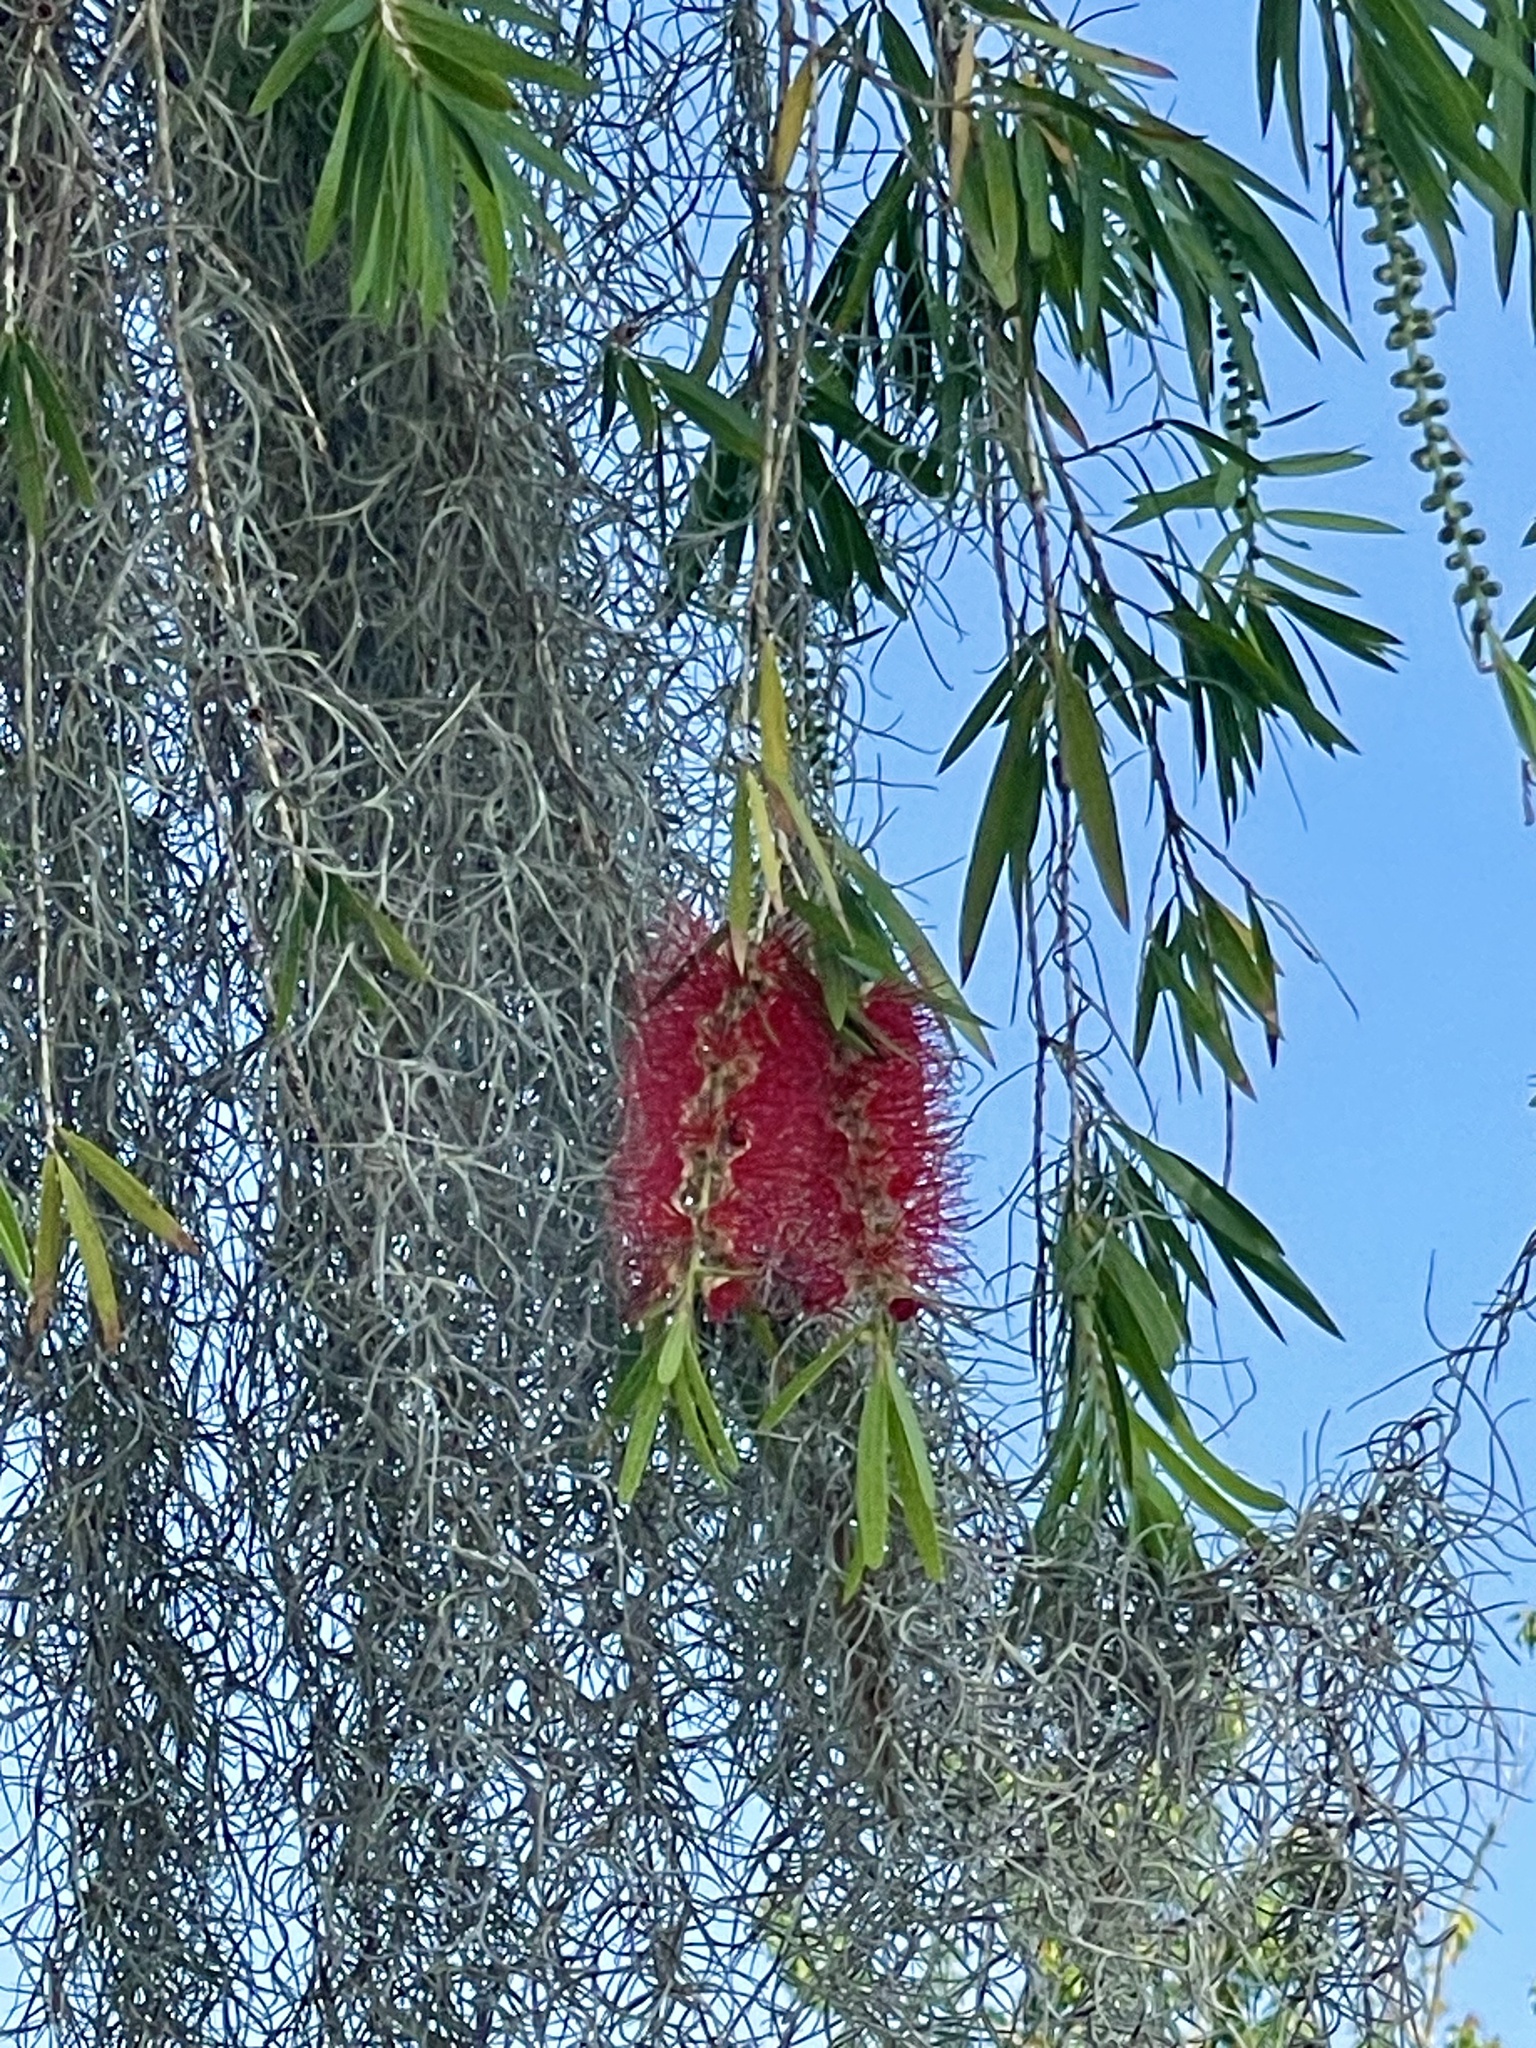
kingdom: Plantae
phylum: Tracheophyta
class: Magnoliopsida
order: Myrtales
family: Myrtaceae
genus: Callistemon
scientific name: Callistemon viminalis
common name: Drooping bottlebrush
